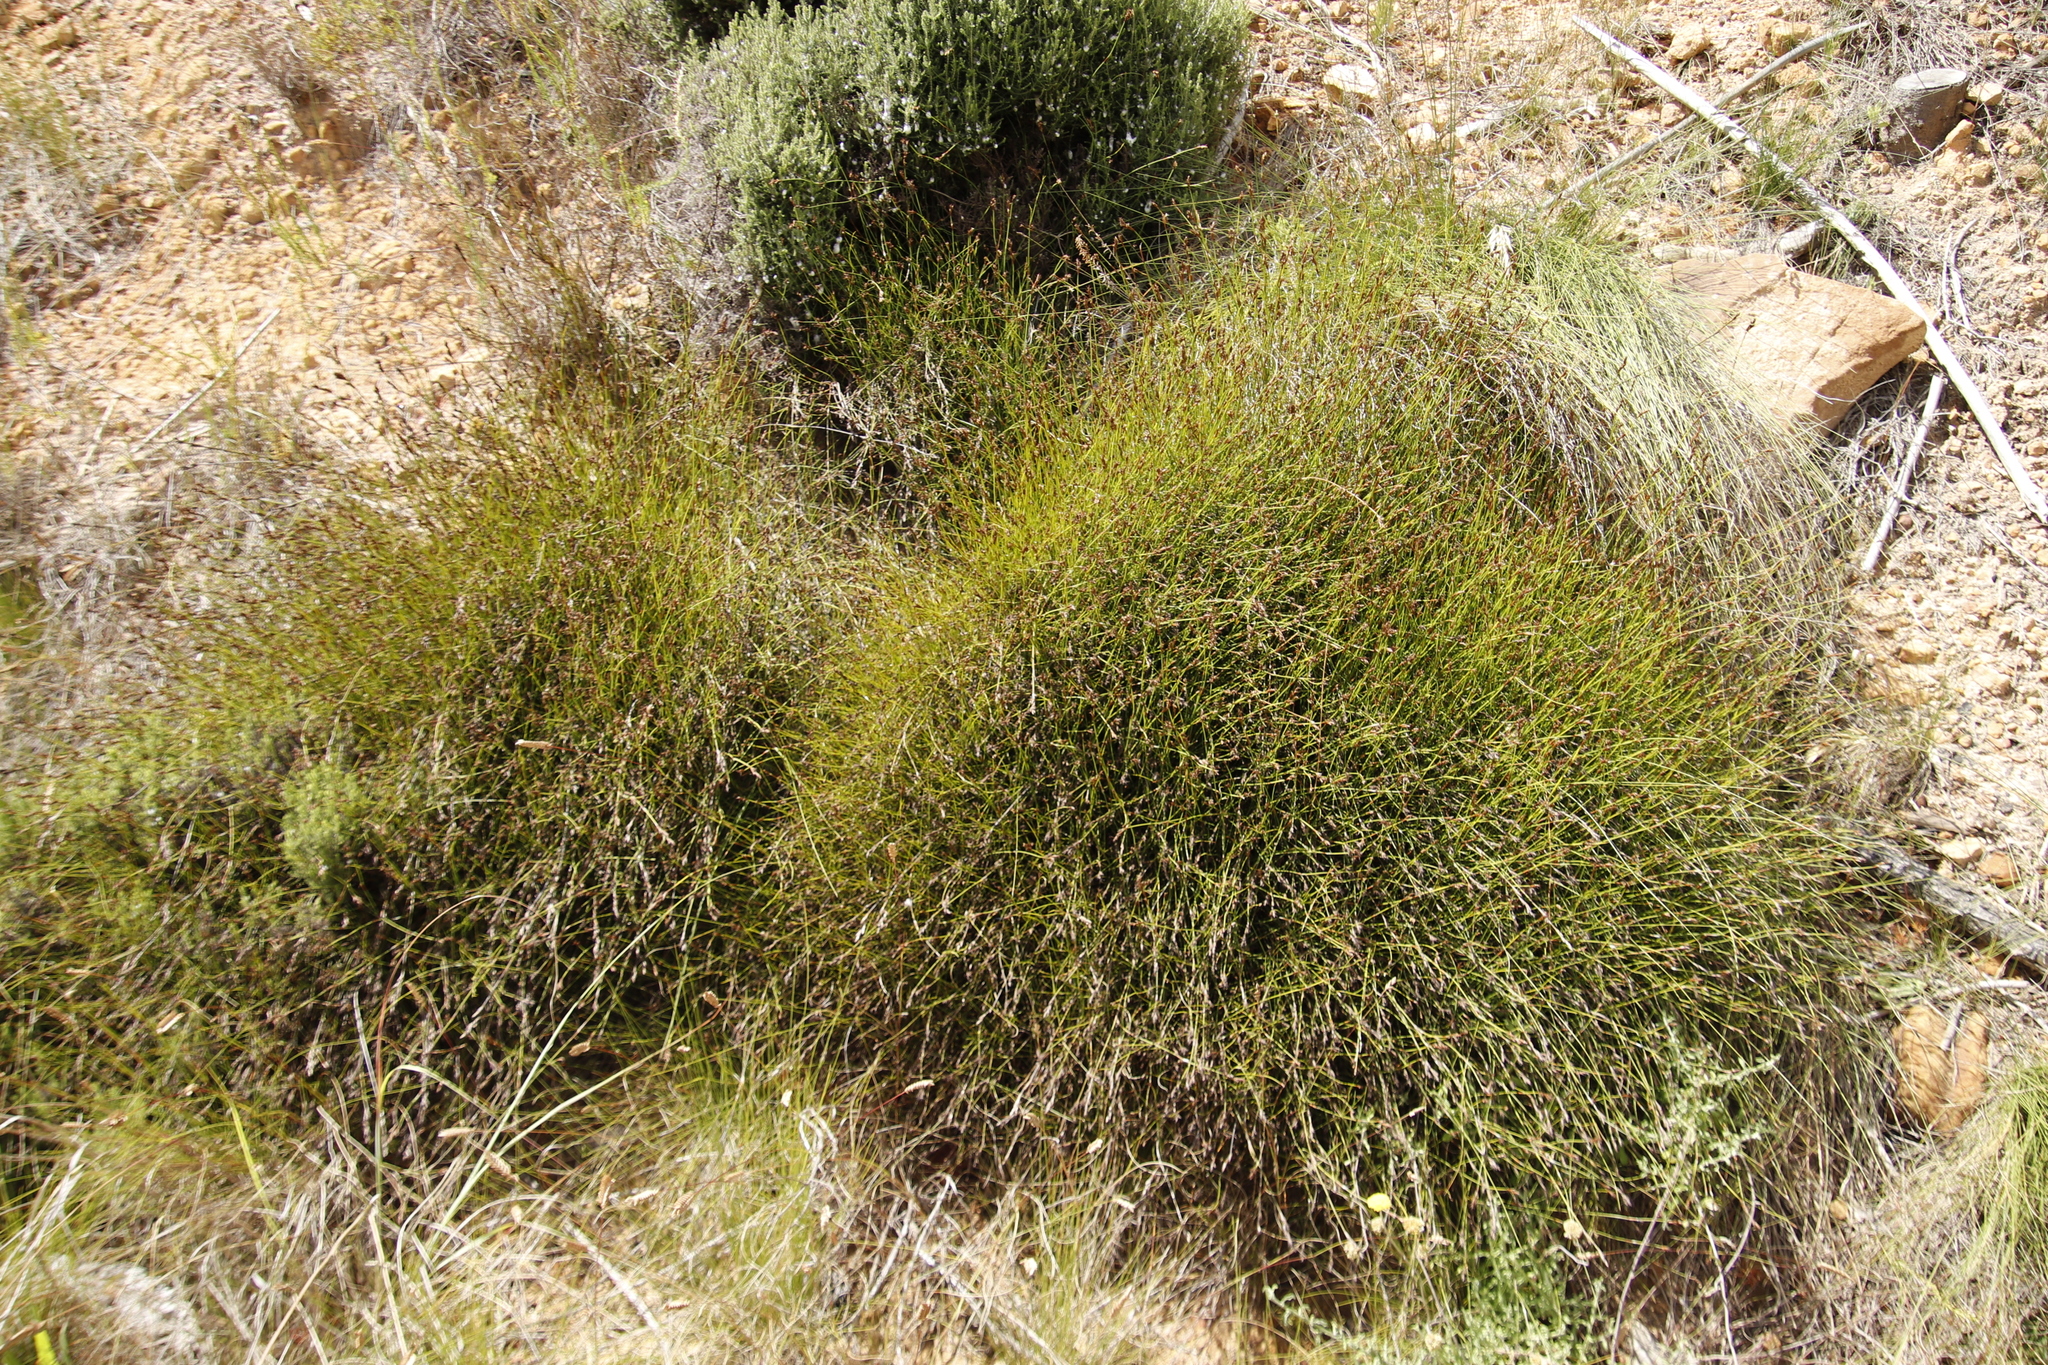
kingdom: Plantae
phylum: Tracheophyta
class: Liliopsida
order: Poales
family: Restionaceae
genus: Restio
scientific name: Restio capensis
